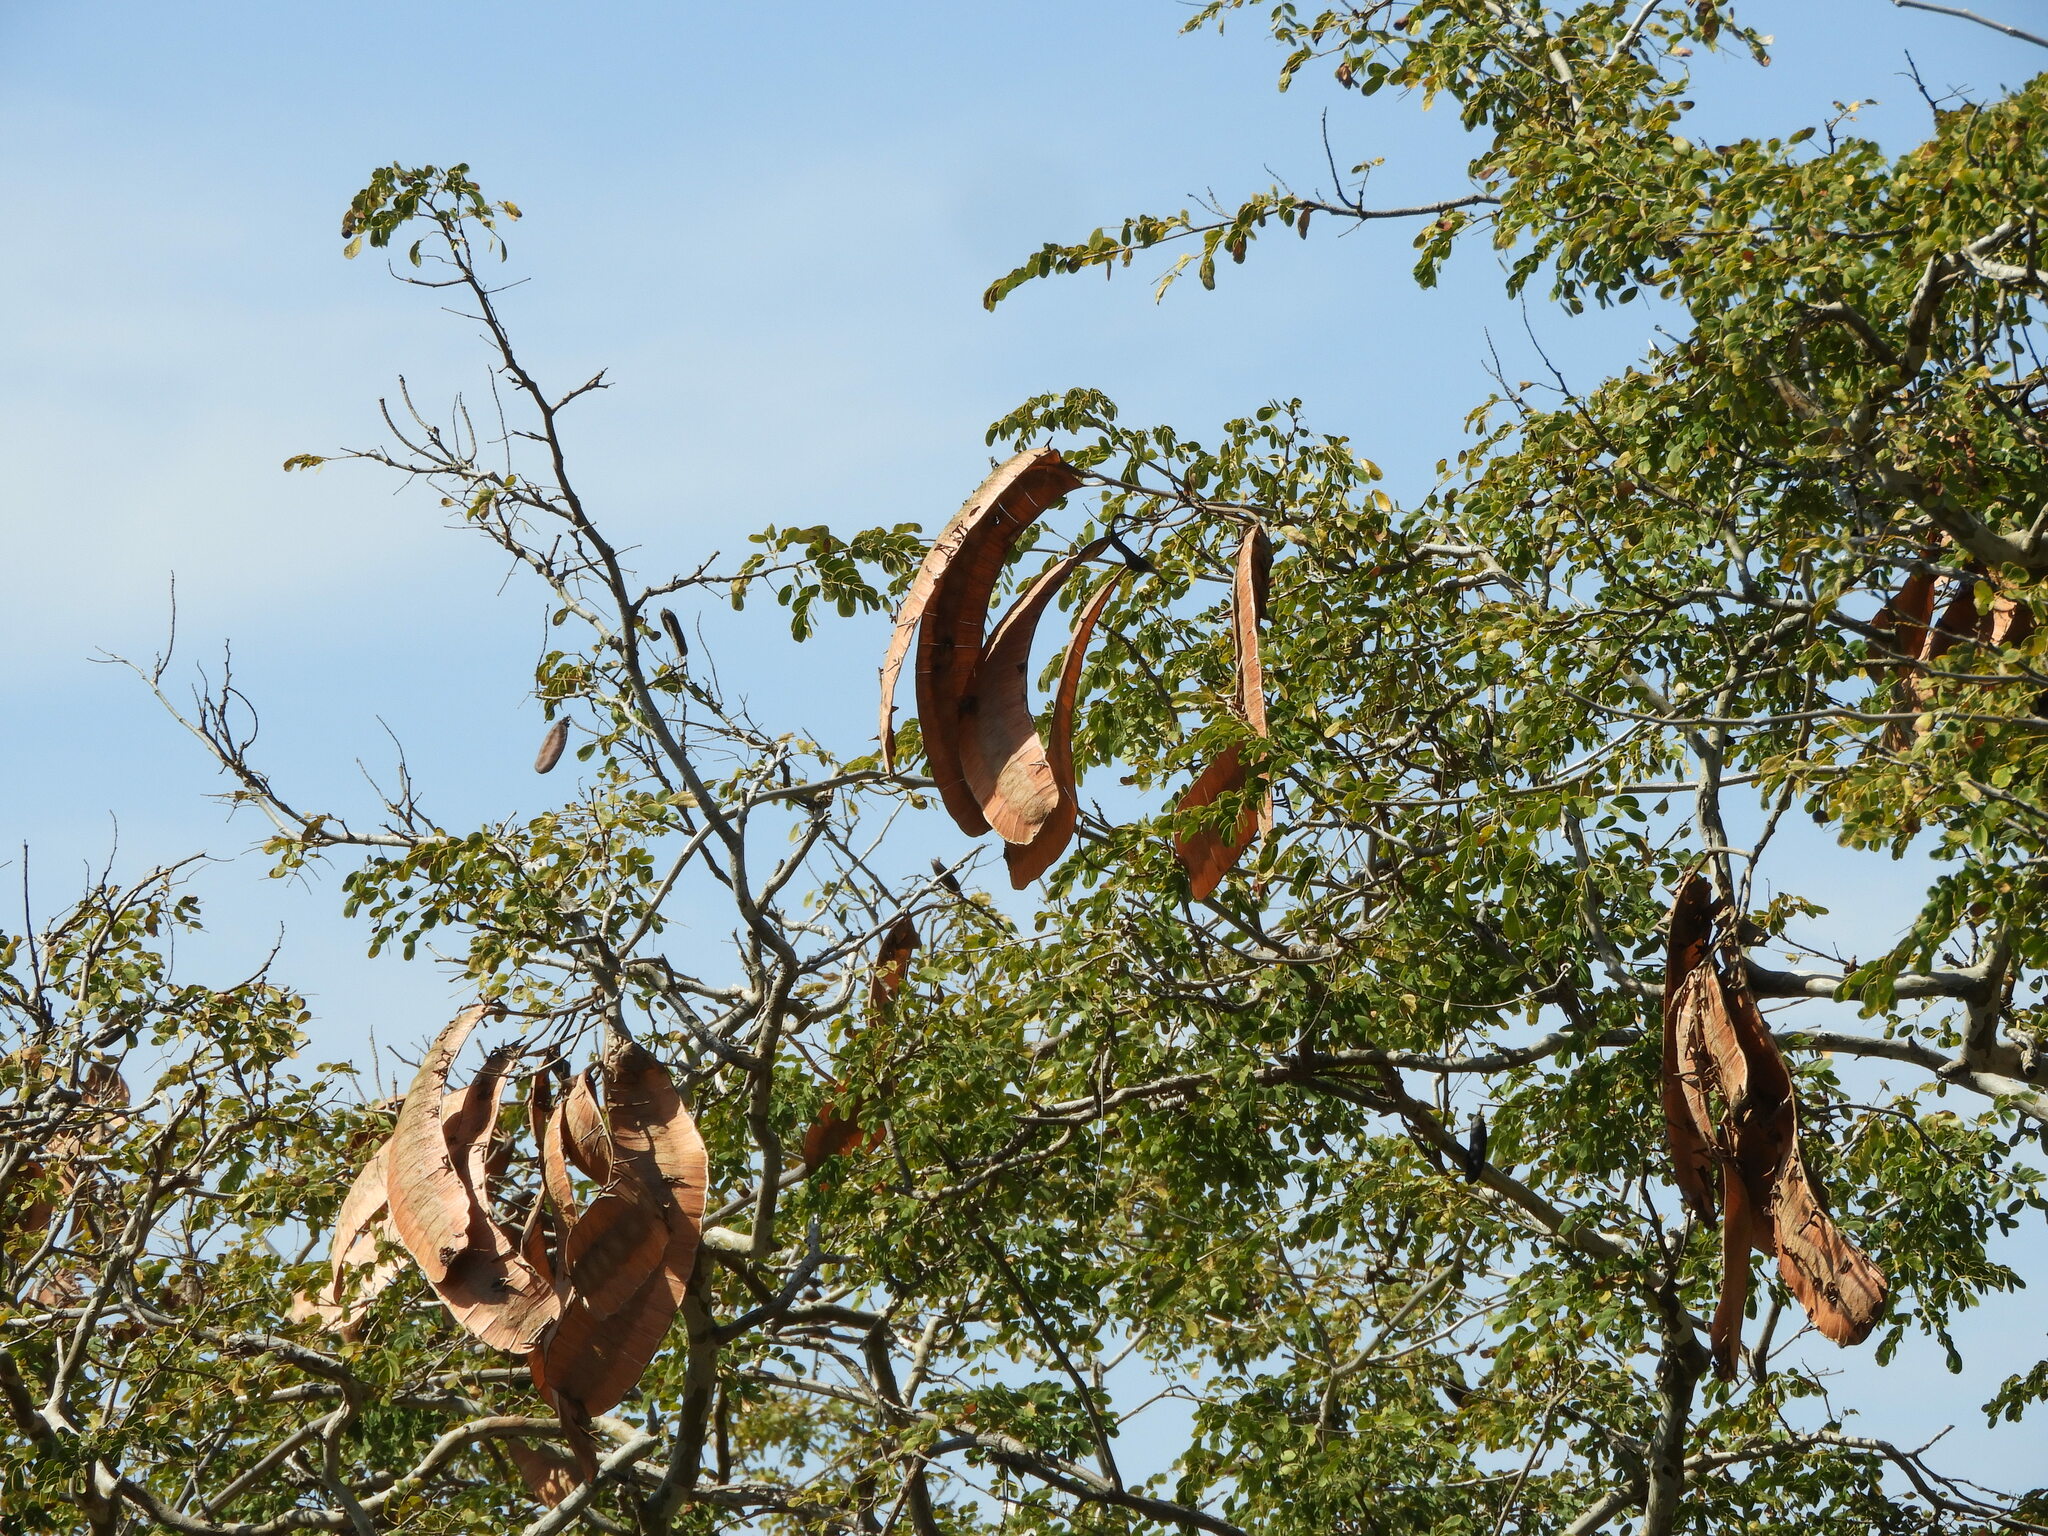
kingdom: Plantae
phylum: Tracheophyta
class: Magnoliopsida
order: Fabales
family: Fabaceae
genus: Entada
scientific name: Entada polystachya
